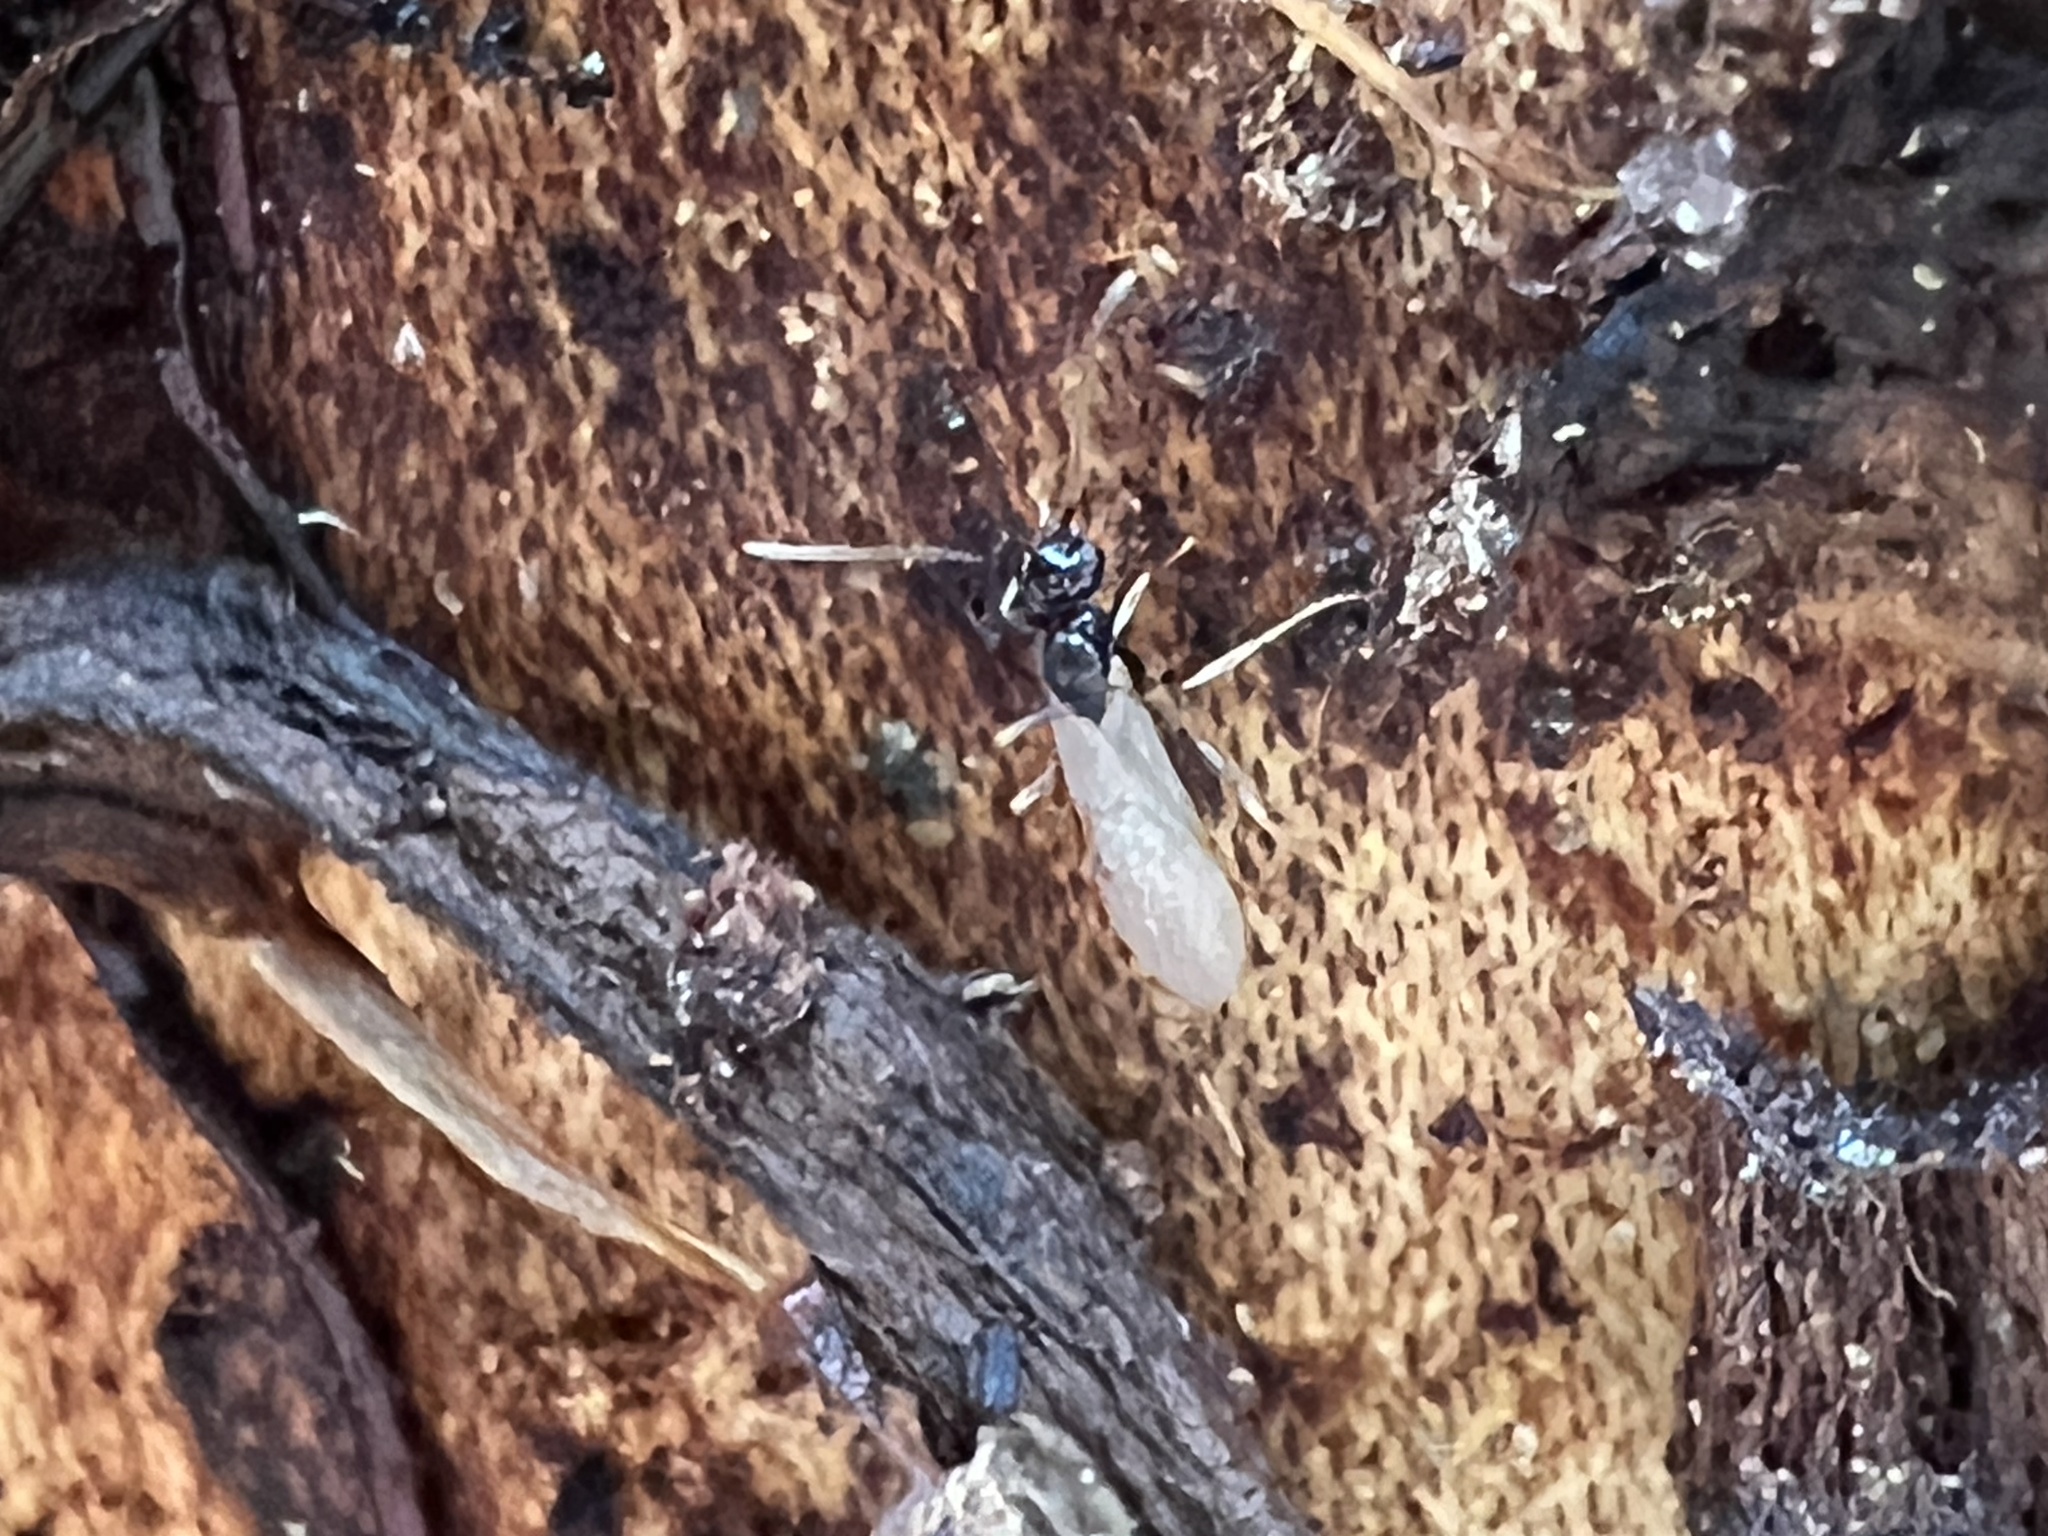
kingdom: Animalia
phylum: Arthropoda
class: Insecta
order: Hymenoptera
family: Formicidae
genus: Prenolepis
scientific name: Prenolepis imparis
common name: Small honey ant
